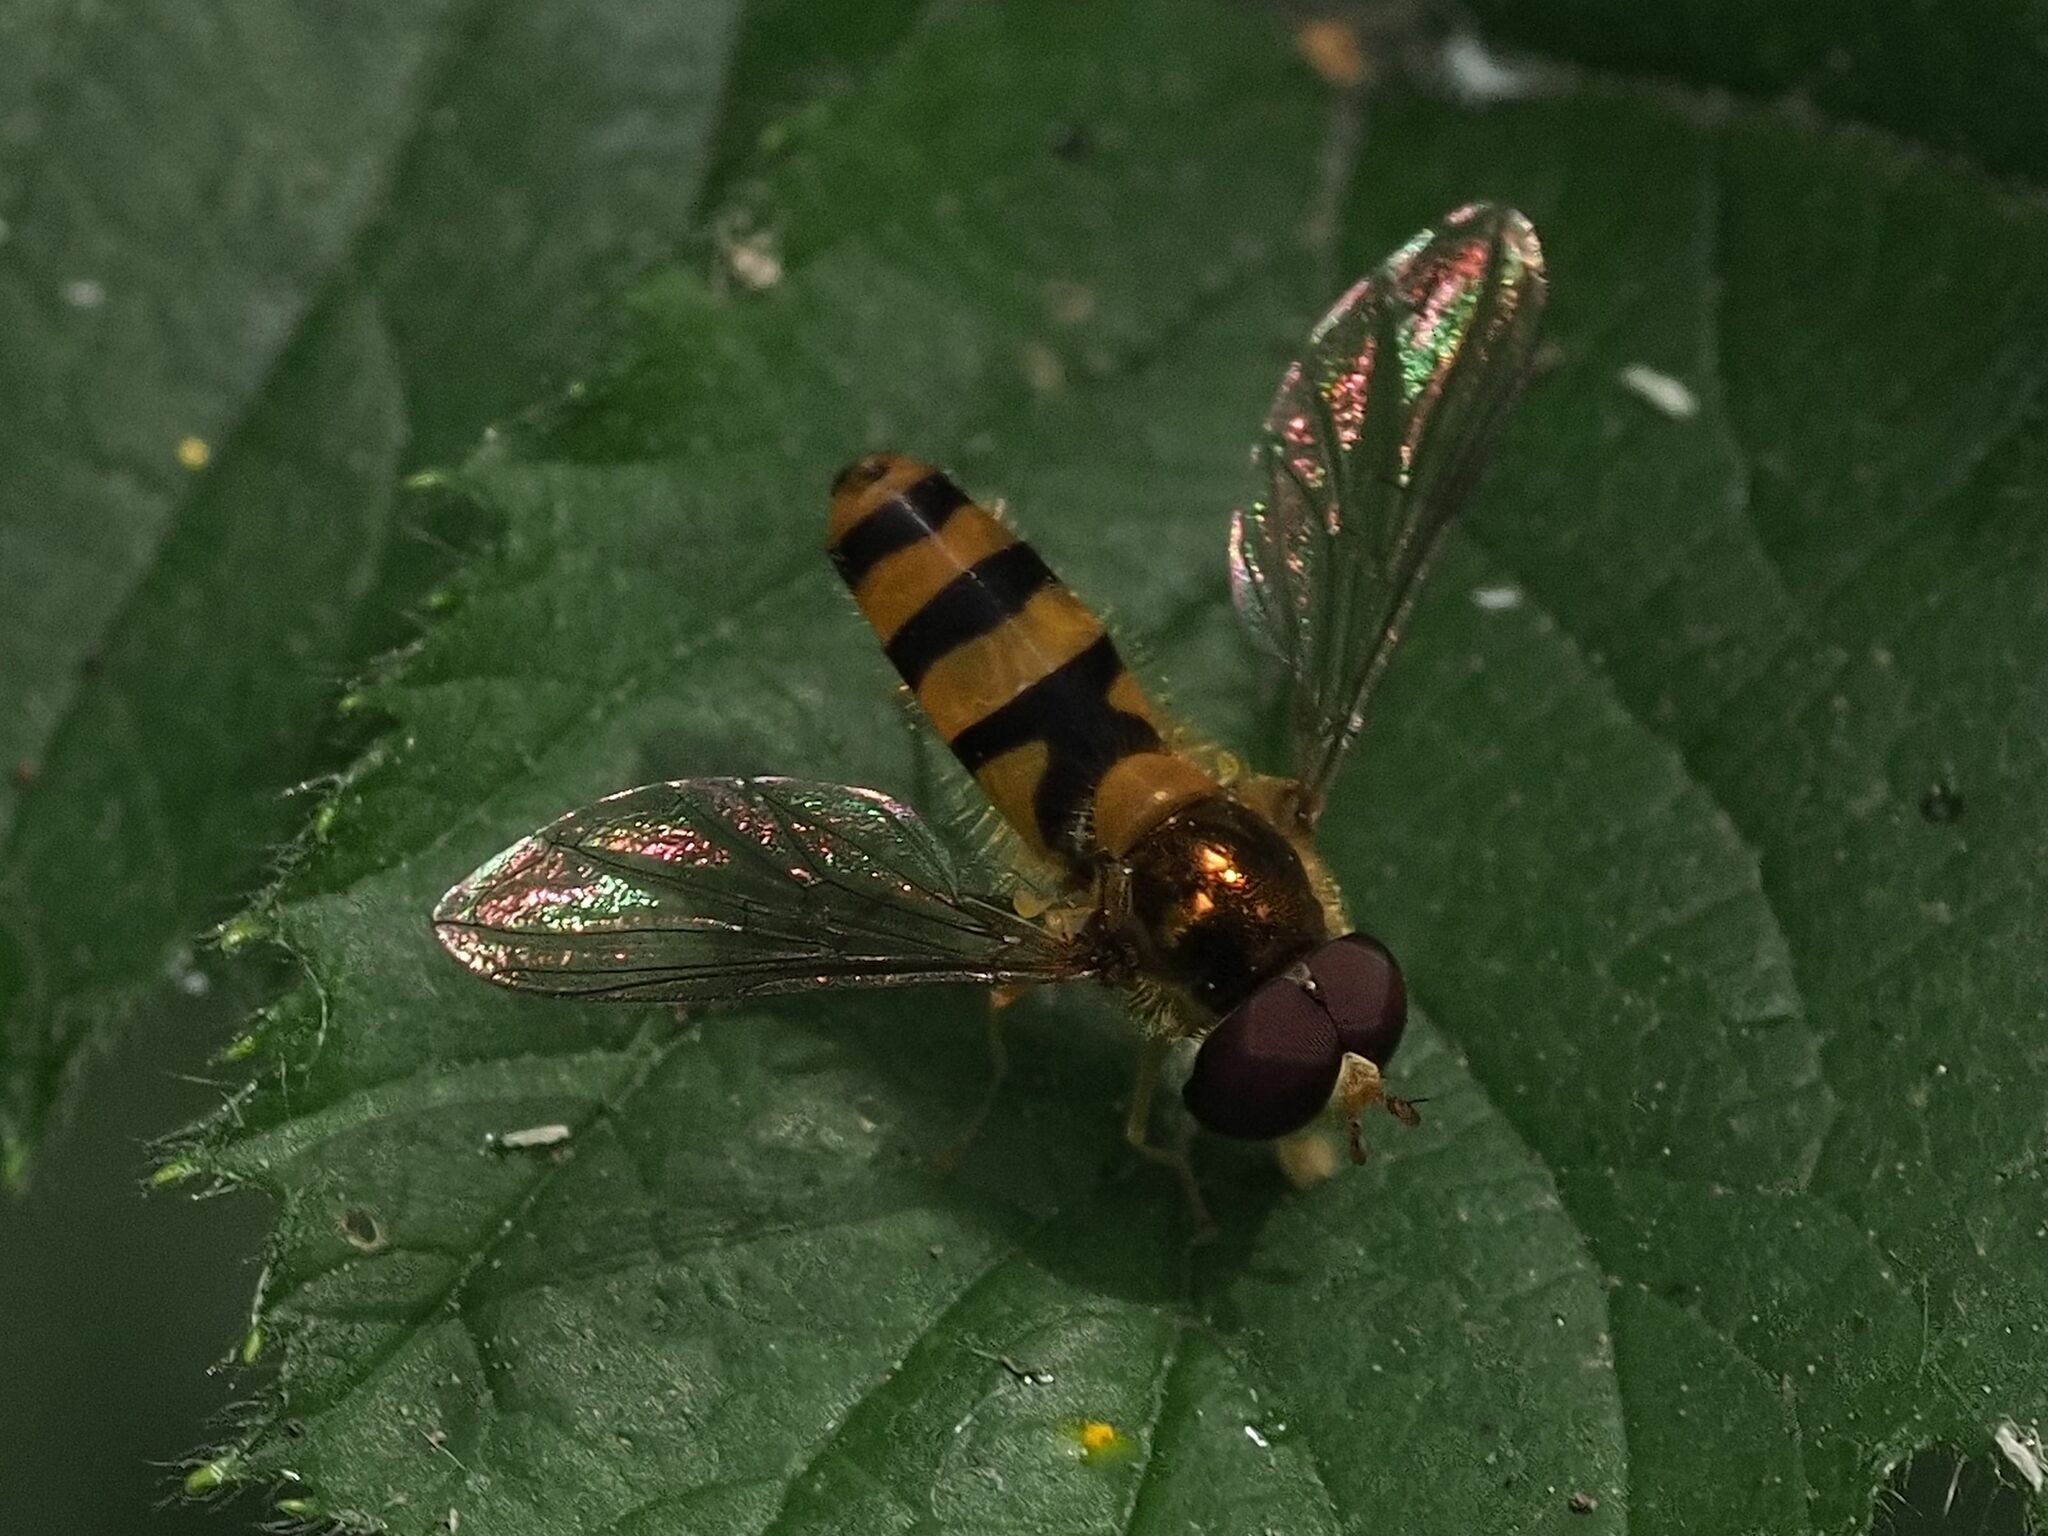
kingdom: Animalia
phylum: Arthropoda
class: Insecta
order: Diptera
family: Syrphidae
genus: Fagisyrphus
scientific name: Fagisyrphus cincta
